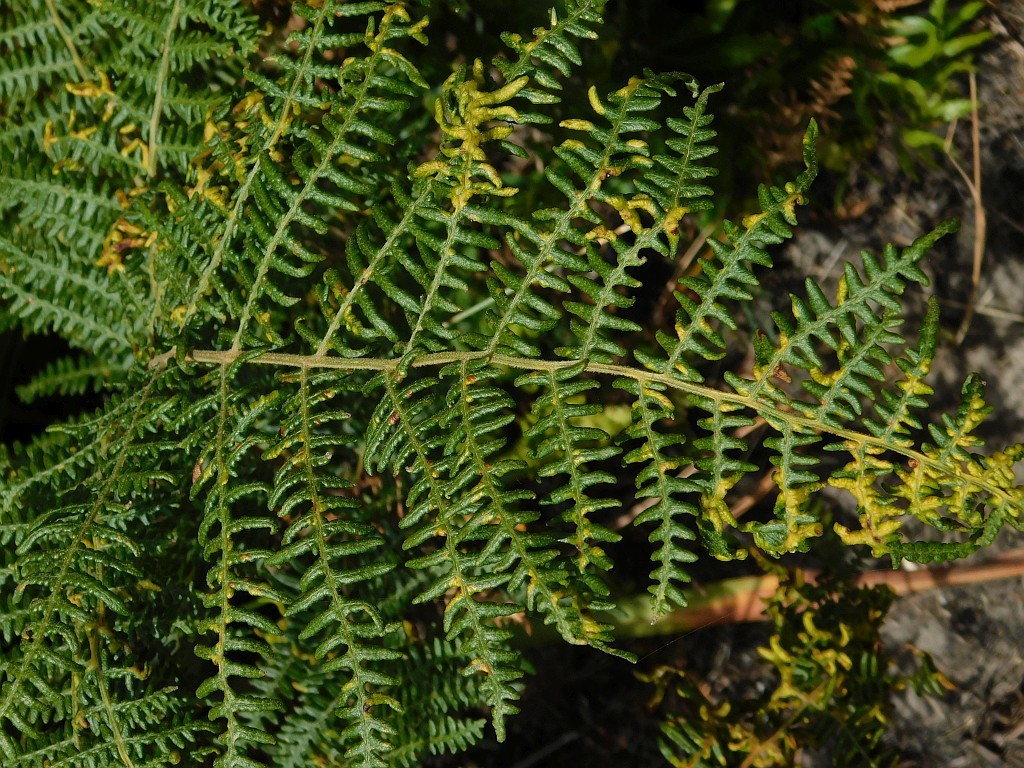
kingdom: Plantae
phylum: Tracheophyta
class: Polypodiopsida
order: Polypodiales
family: Dennstaedtiaceae
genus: Pteridium
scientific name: Pteridium aquilinum
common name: Bracken
